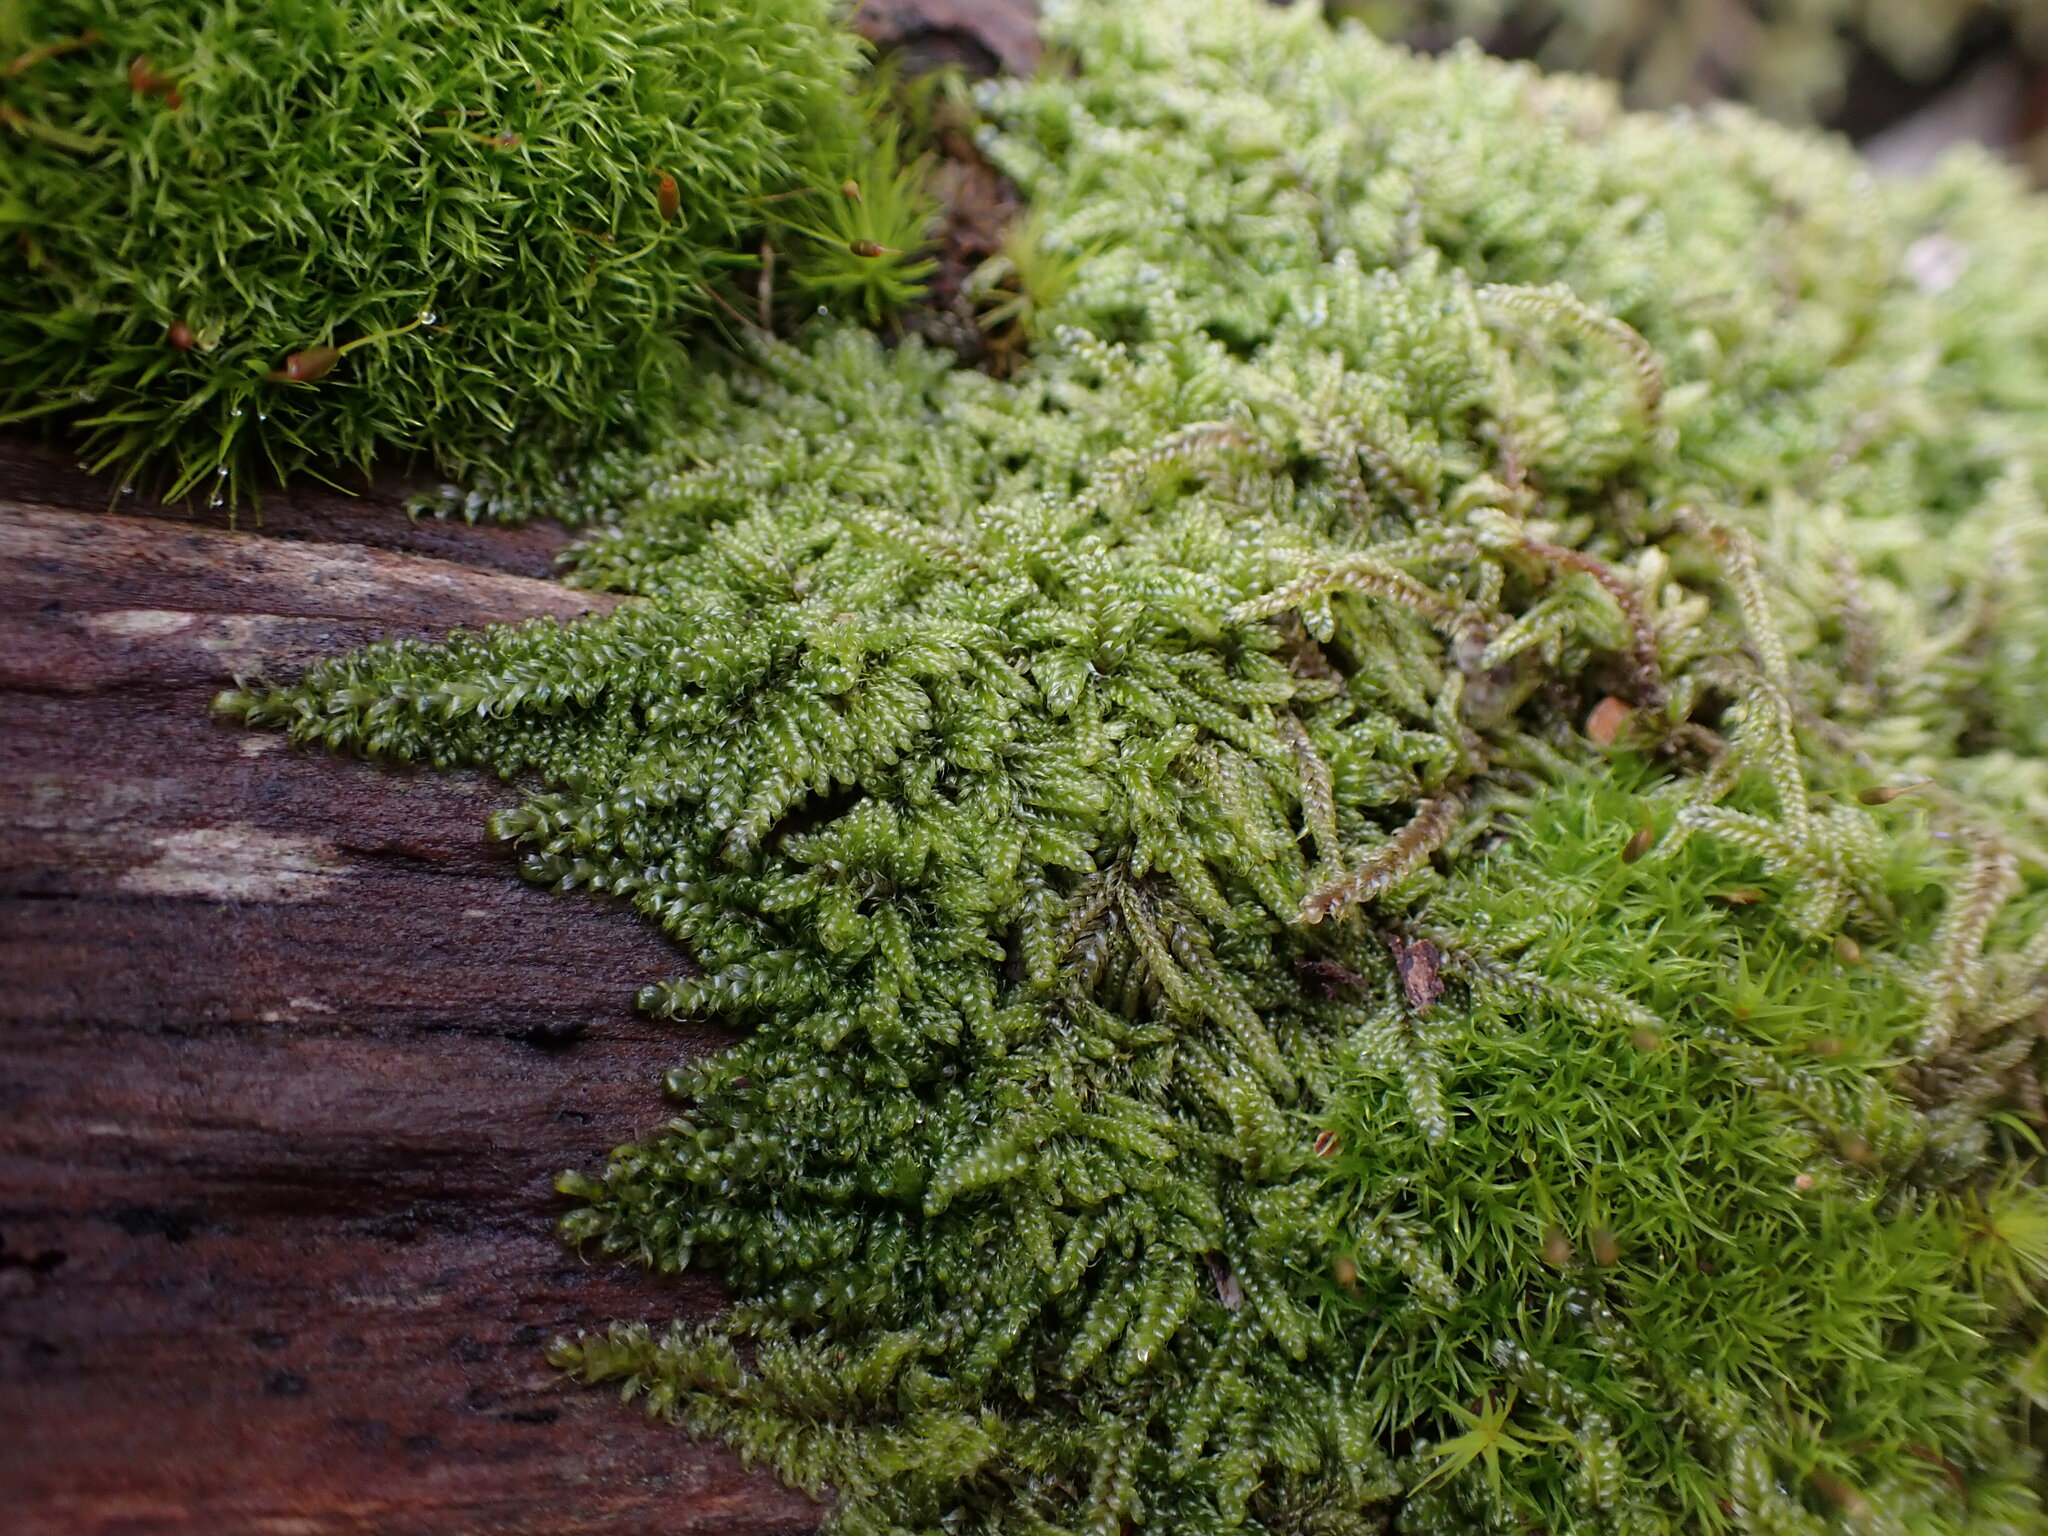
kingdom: Plantae
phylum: Bryophyta
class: Bryopsida
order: Hypnales
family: Pylaisiadelphaceae
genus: Trochophyllohypnum
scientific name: Trochophyllohypnum circinale
